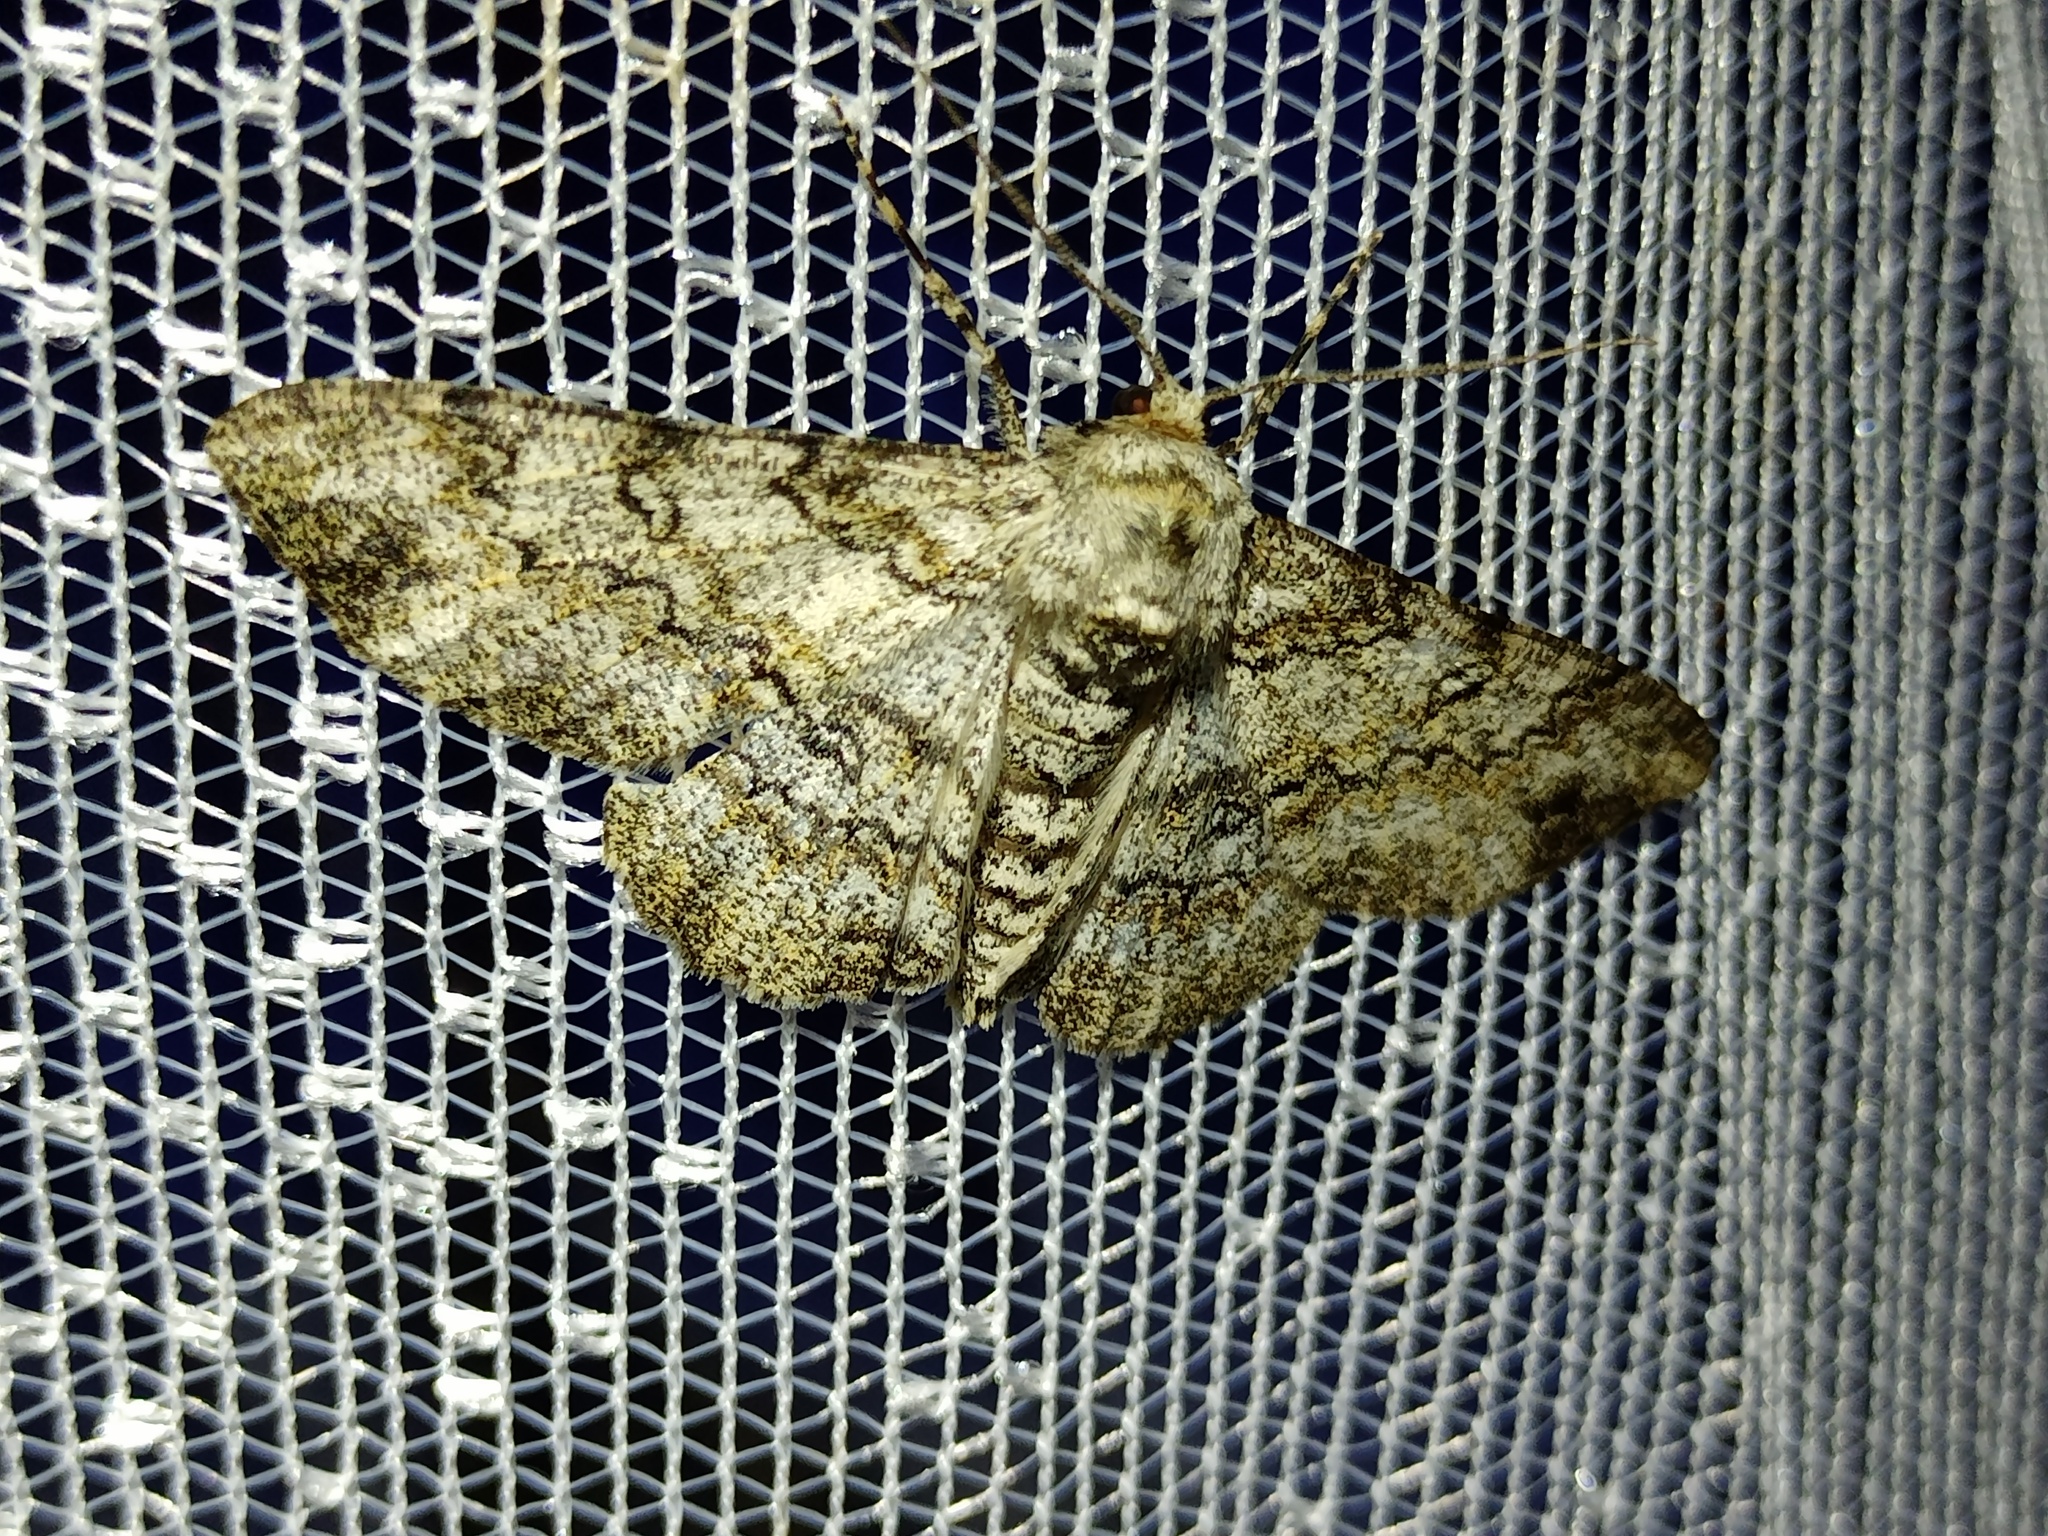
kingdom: Animalia
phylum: Arthropoda
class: Insecta
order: Lepidoptera
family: Geometridae
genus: Ascotis
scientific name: Ascotis selenaria
